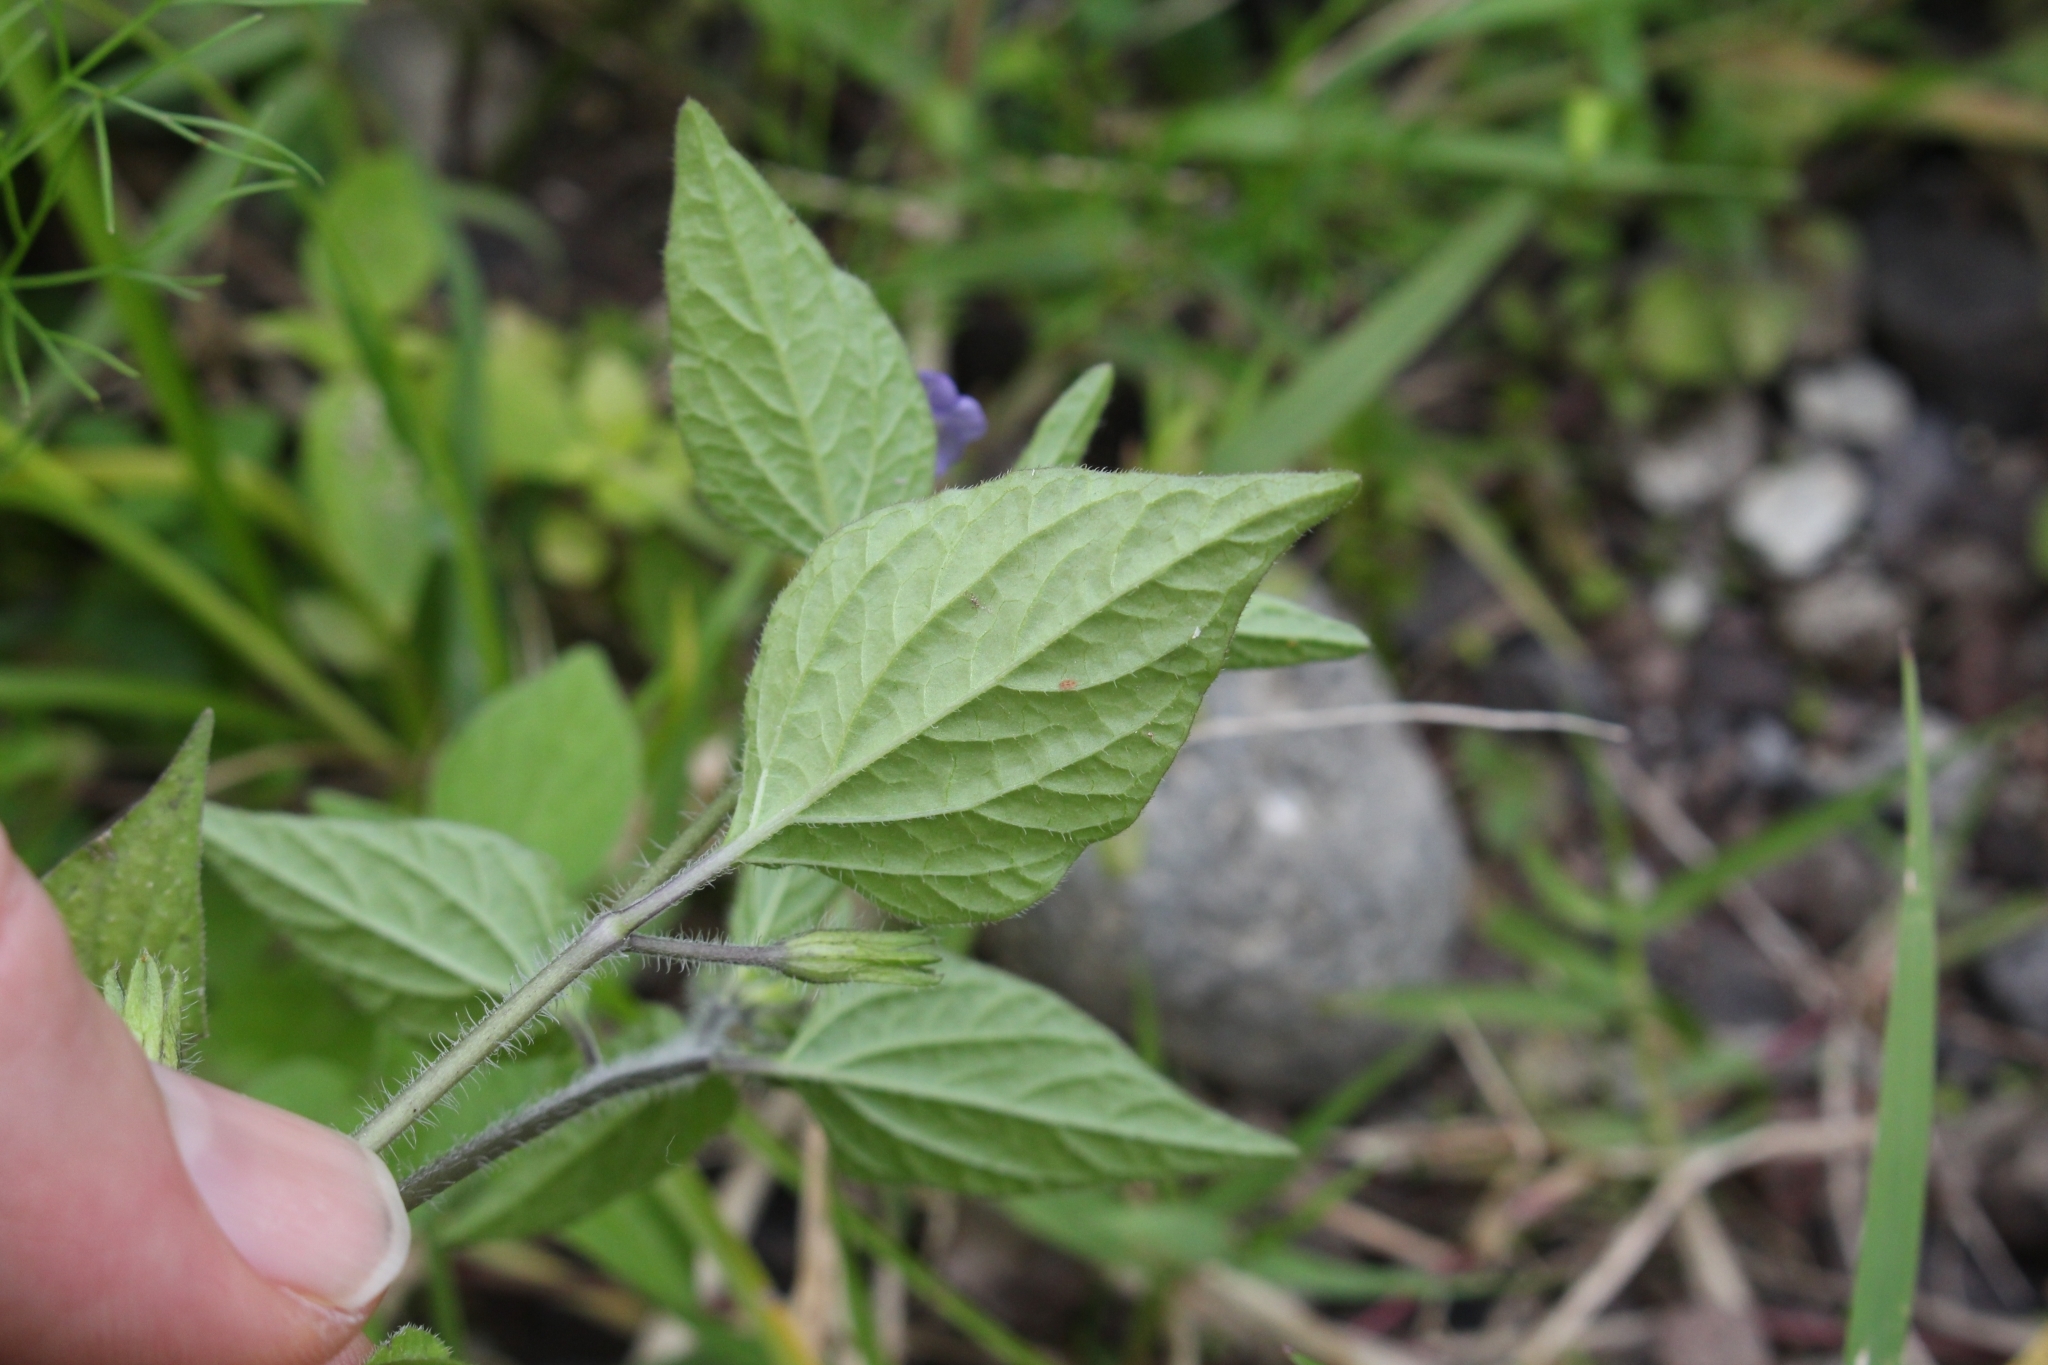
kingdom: Plantae
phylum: Tracheophyta
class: Magnoliopsida
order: Solanales
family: Solanaceae
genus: Browallia
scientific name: Browallia americana
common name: Jamaican forget-me-not
